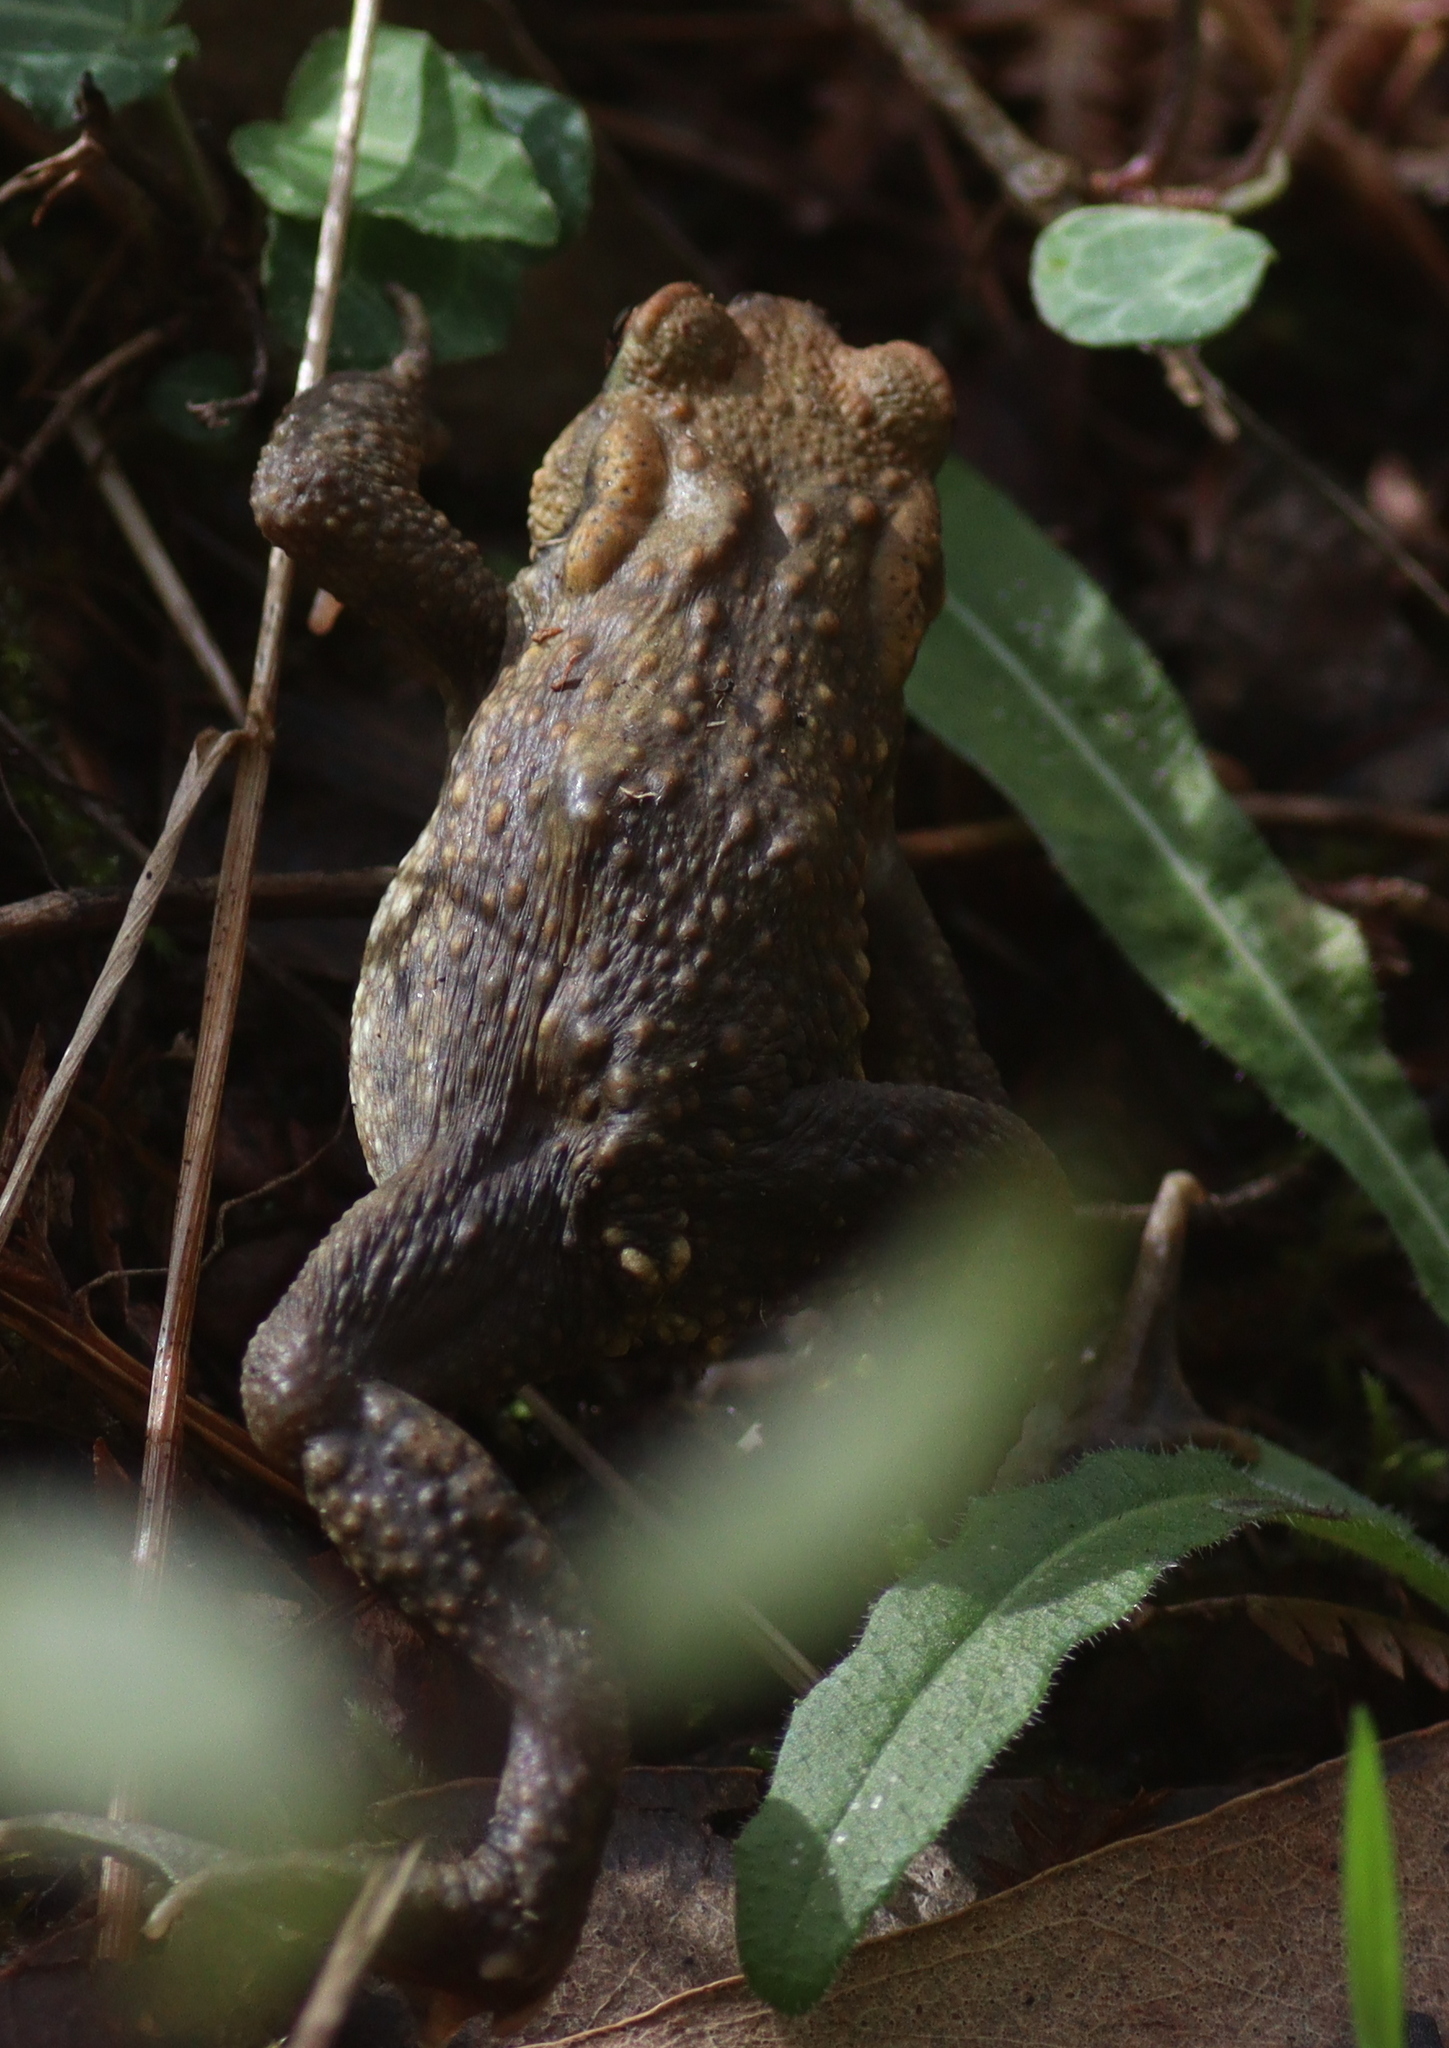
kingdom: Animalia
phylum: Chordata
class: Amphibia
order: Anura
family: Bufonidae
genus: Bufo
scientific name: Bufo spinosus
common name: Western common toad
